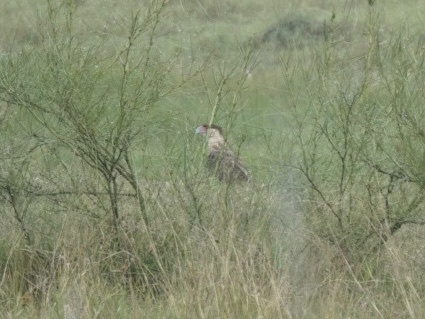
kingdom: Animalia
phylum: Chordata
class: Aves
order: Falconiformes
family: Falconidae
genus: Caracara
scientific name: Caracara plancus
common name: Southern caracara
